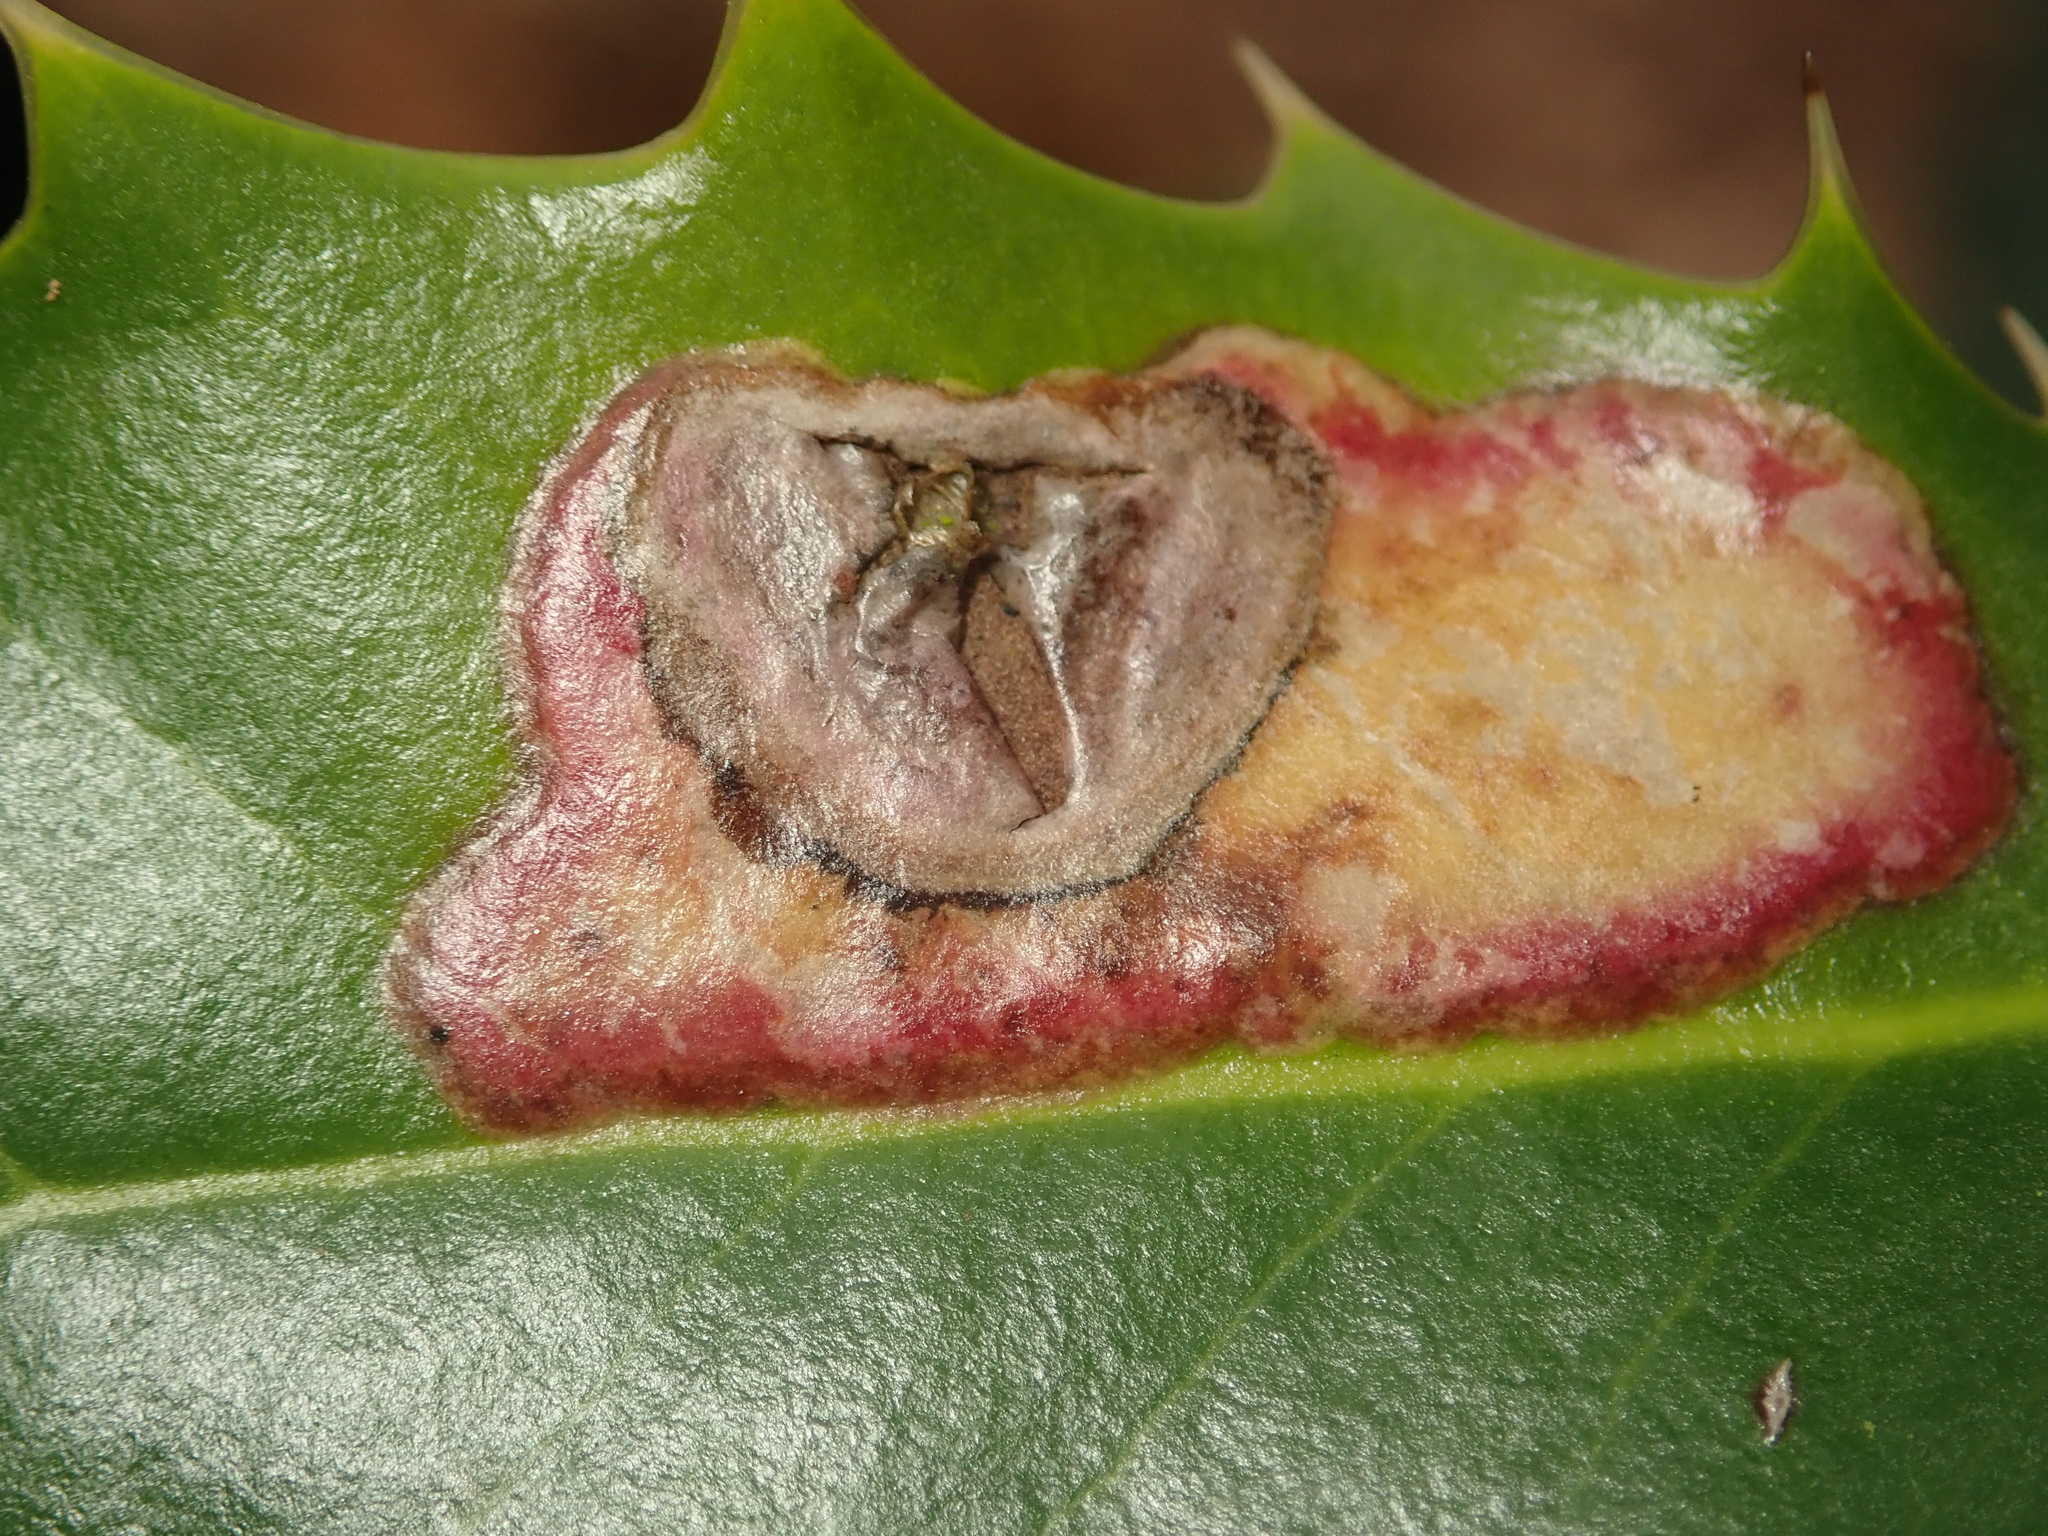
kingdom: Animalia
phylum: Arthropoda
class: Insecta
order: Diptera
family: Agromyzidae
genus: Phytomyza
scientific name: Phytomyza ilicis
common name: Holly leafminer
